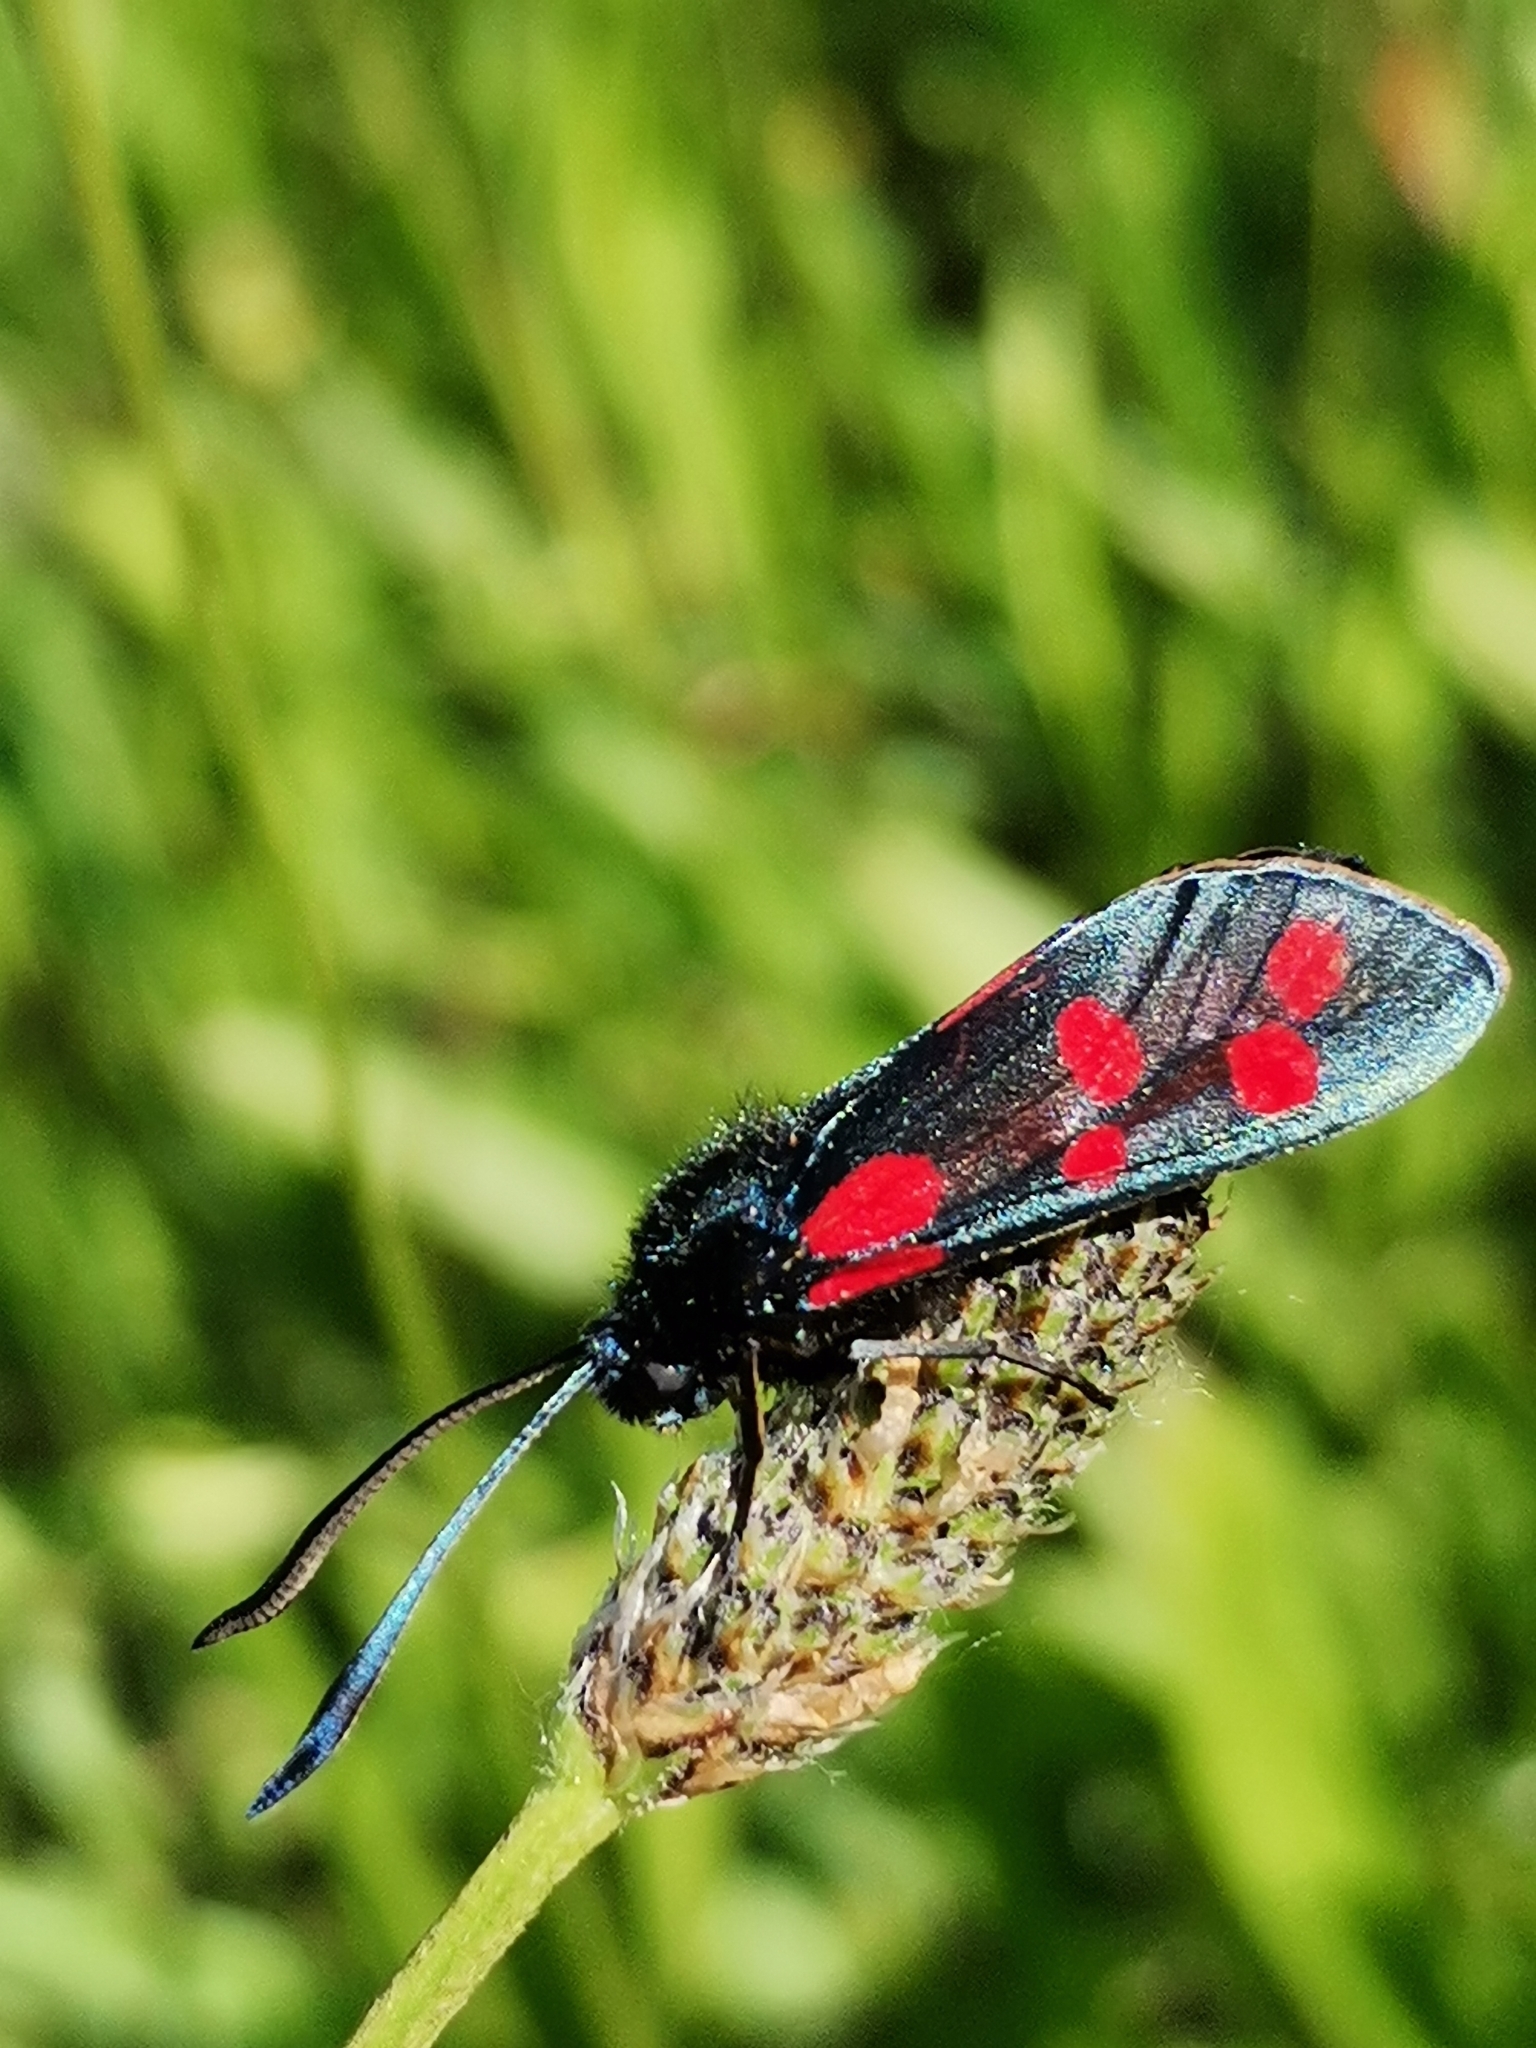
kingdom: Animalia
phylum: Arthropoda
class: Insecta
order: Lepidoptera
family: Zygaenidae
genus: Zygaena
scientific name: Zygaena filipendulae
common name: Six-spot burnet
